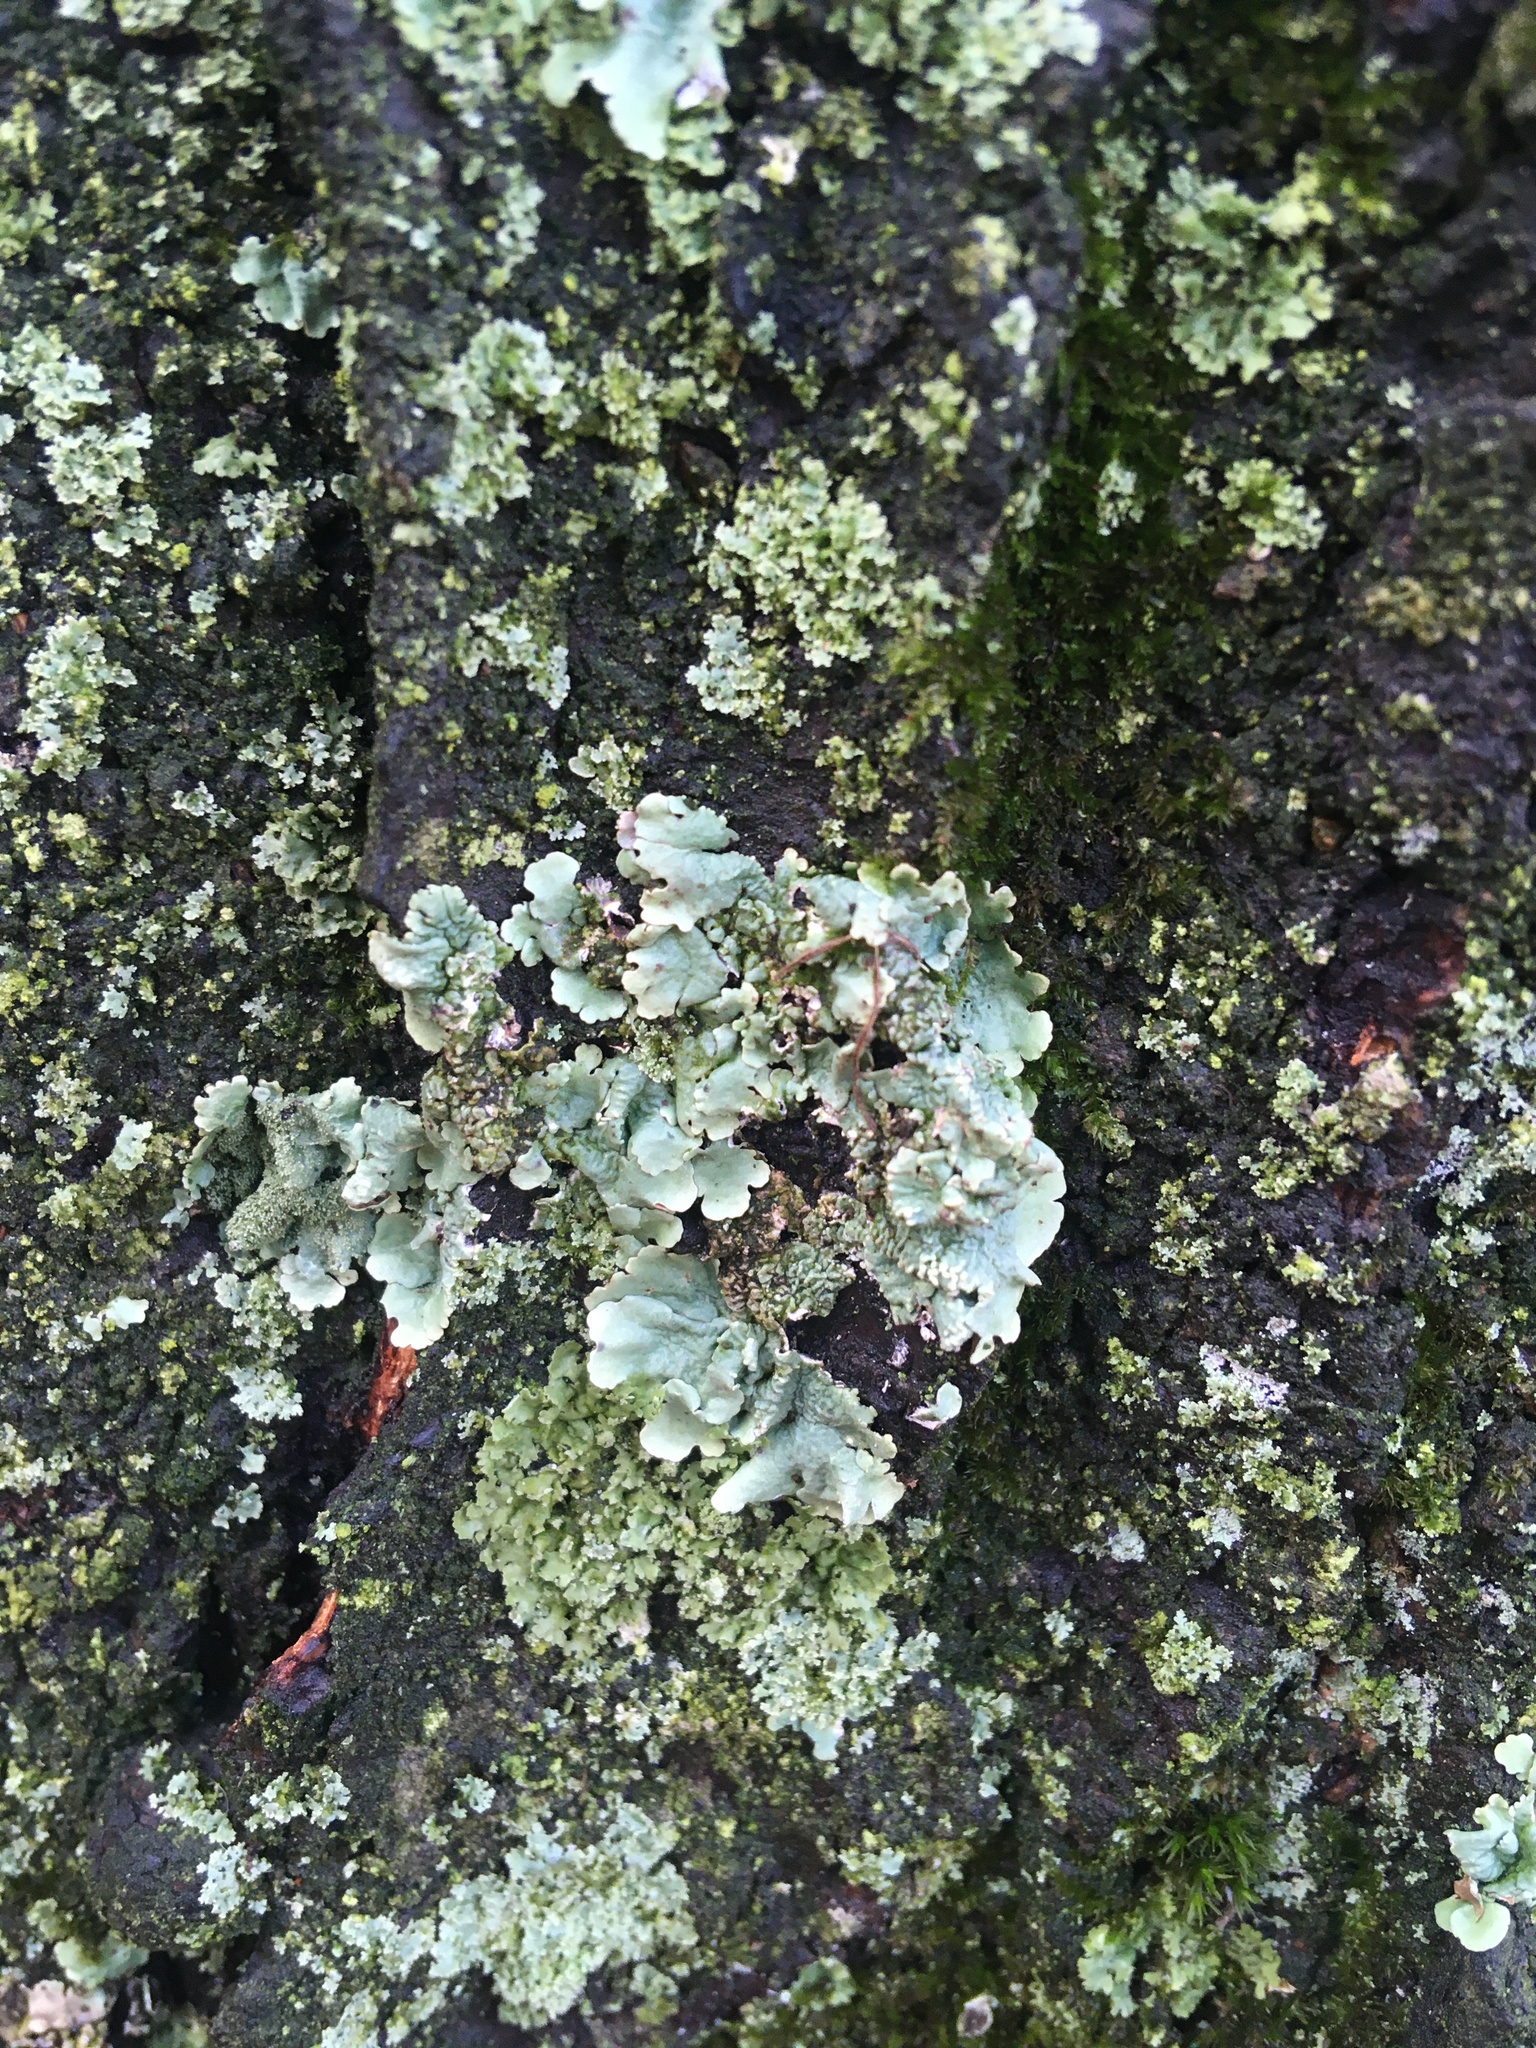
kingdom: Fungi
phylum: Ascomycota
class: Lecanoromycetes
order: Lecanorales
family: Parmeliaceae
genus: Flavoparmelia
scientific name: Flavoparmelia caperata
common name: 40-mile per hour lichen
